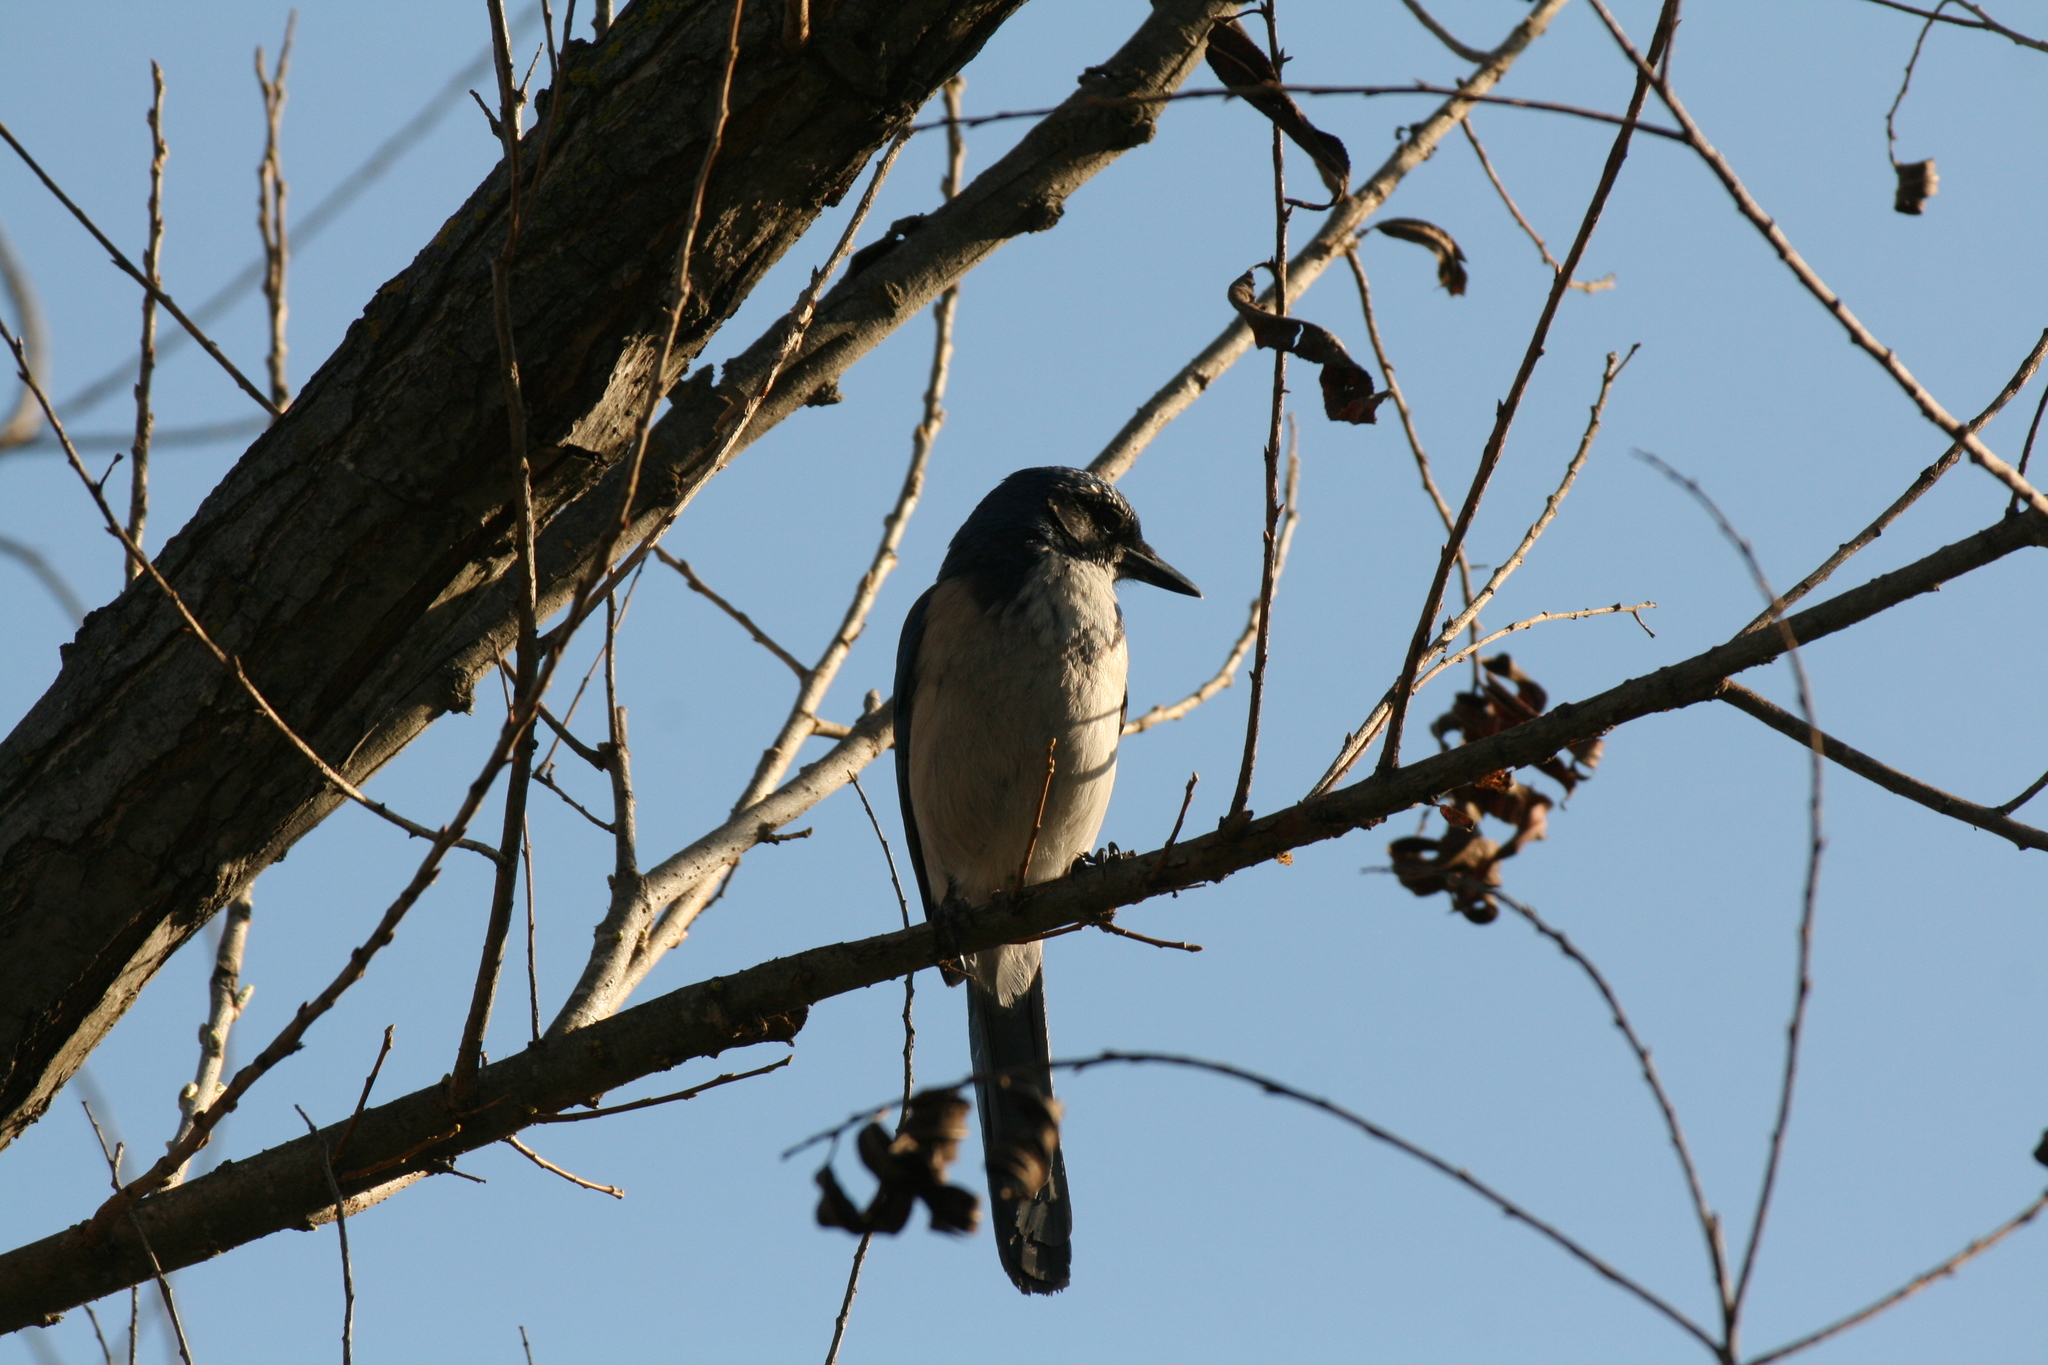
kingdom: Animalia
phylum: Chordata
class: Aves
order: Passeriformes
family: Corvidae
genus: Aphelocoma
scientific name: Aphelocoma californica
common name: California scrub-jay
